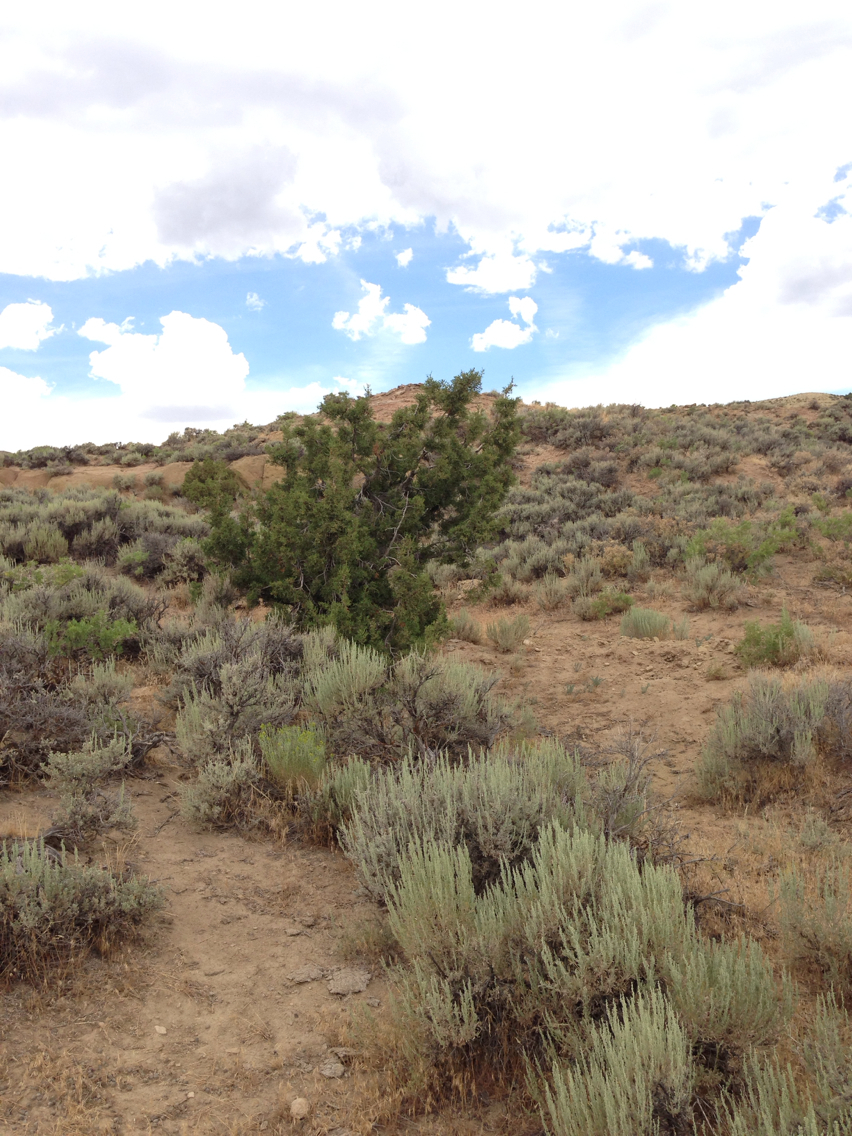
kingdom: Plantae
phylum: Tracheophyta
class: Pinopsida
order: Pinales
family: Cupressaceae
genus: Juniperus
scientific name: Juniperus osteosperma
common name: Utah juniper
